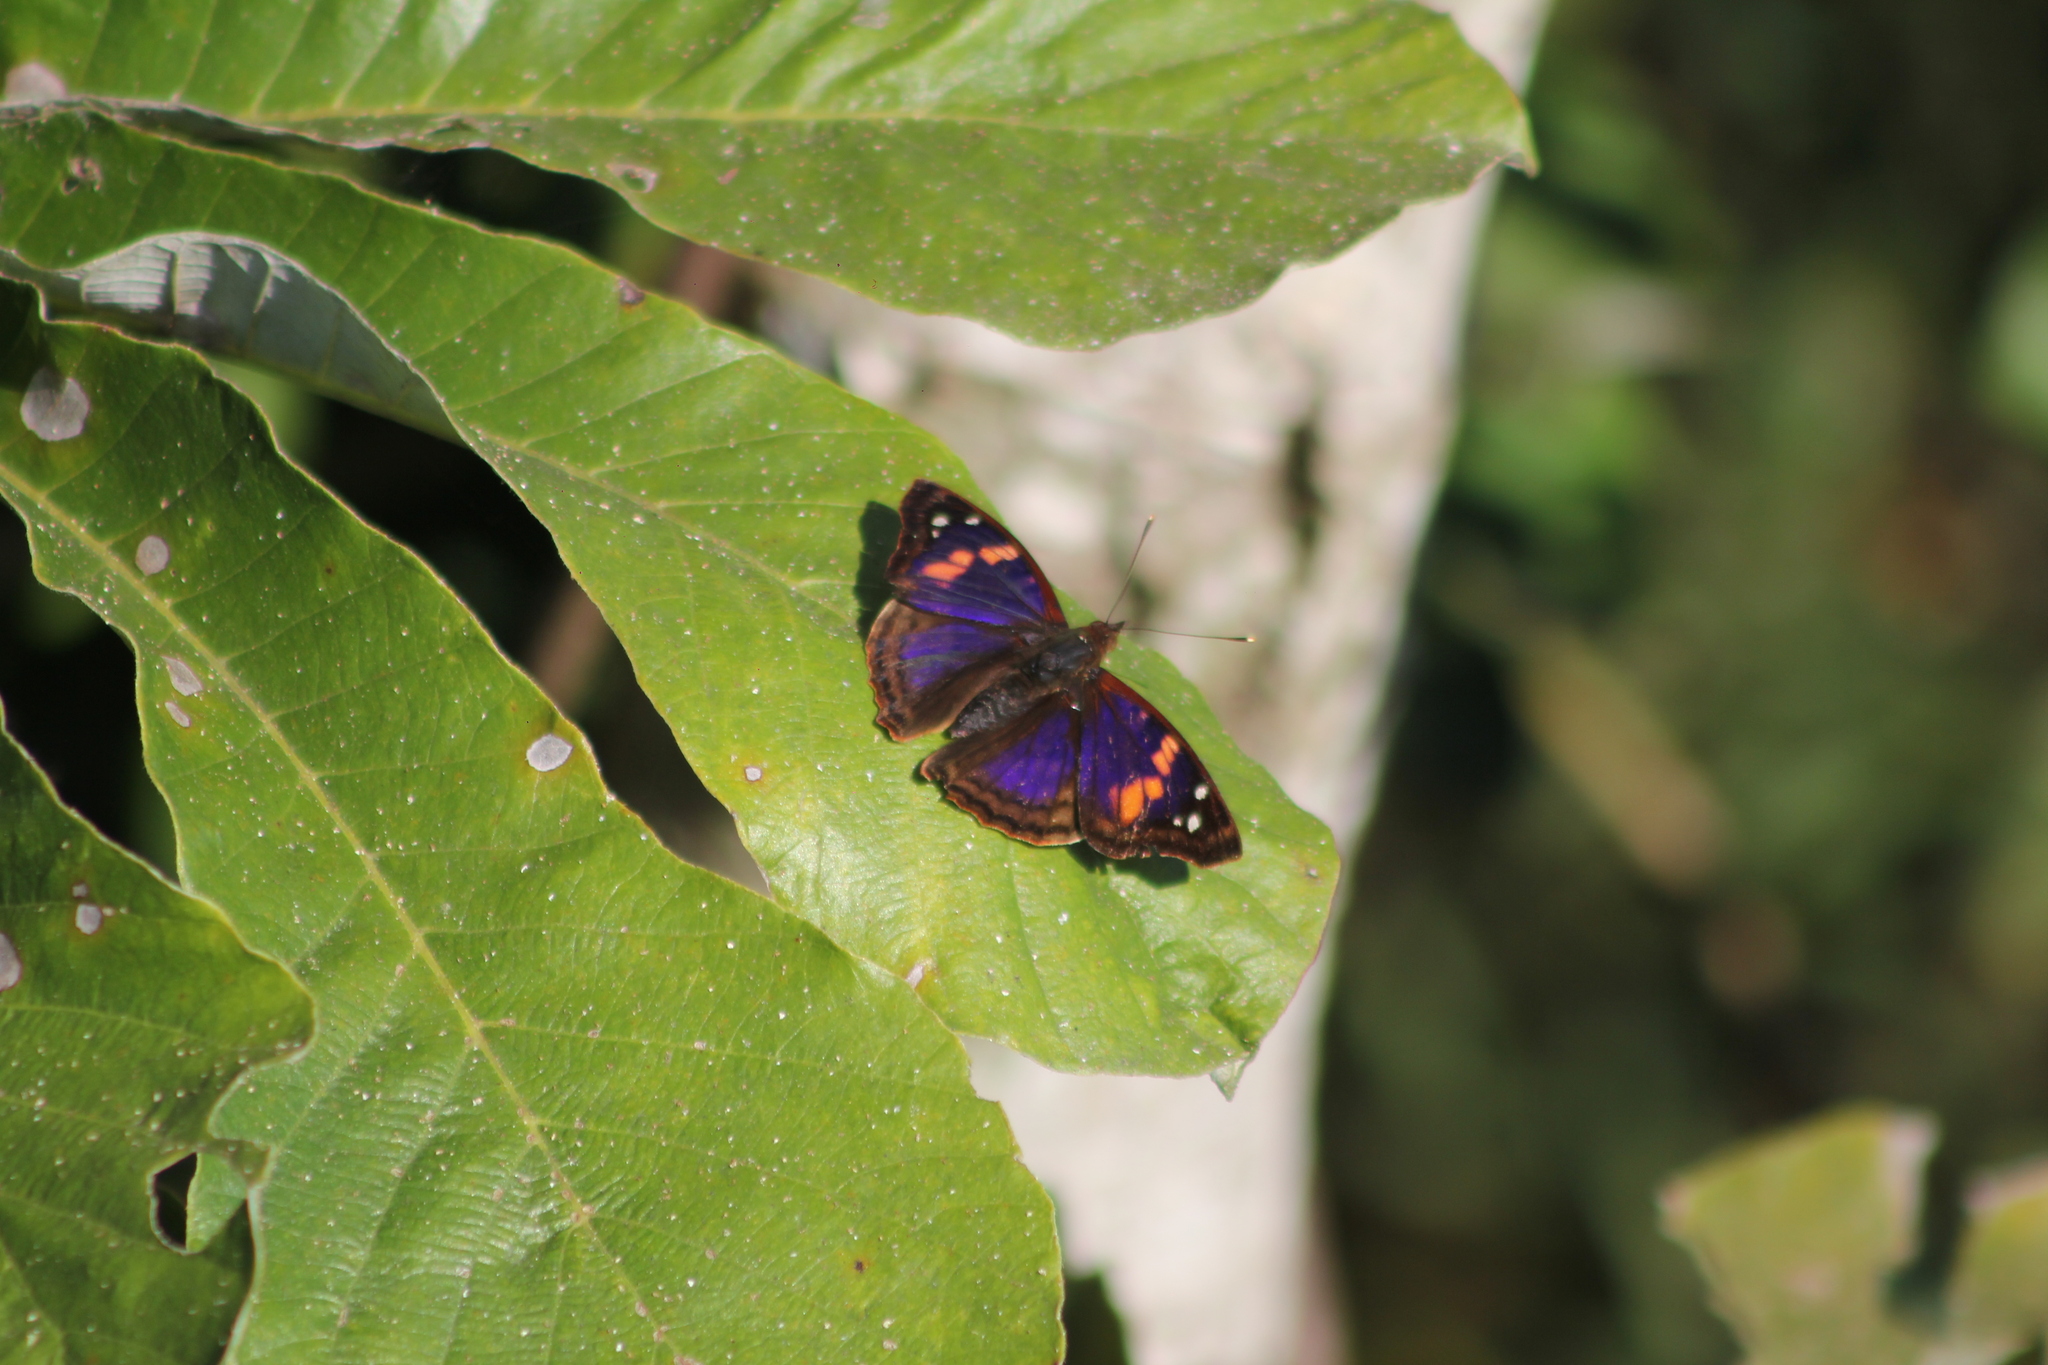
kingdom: Animalia
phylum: Arthropoda
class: Insecta
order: Lepidoptera
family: Nymphalidae
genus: Doxocopa
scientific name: Doxocopa agathina
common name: Agathina emperor
